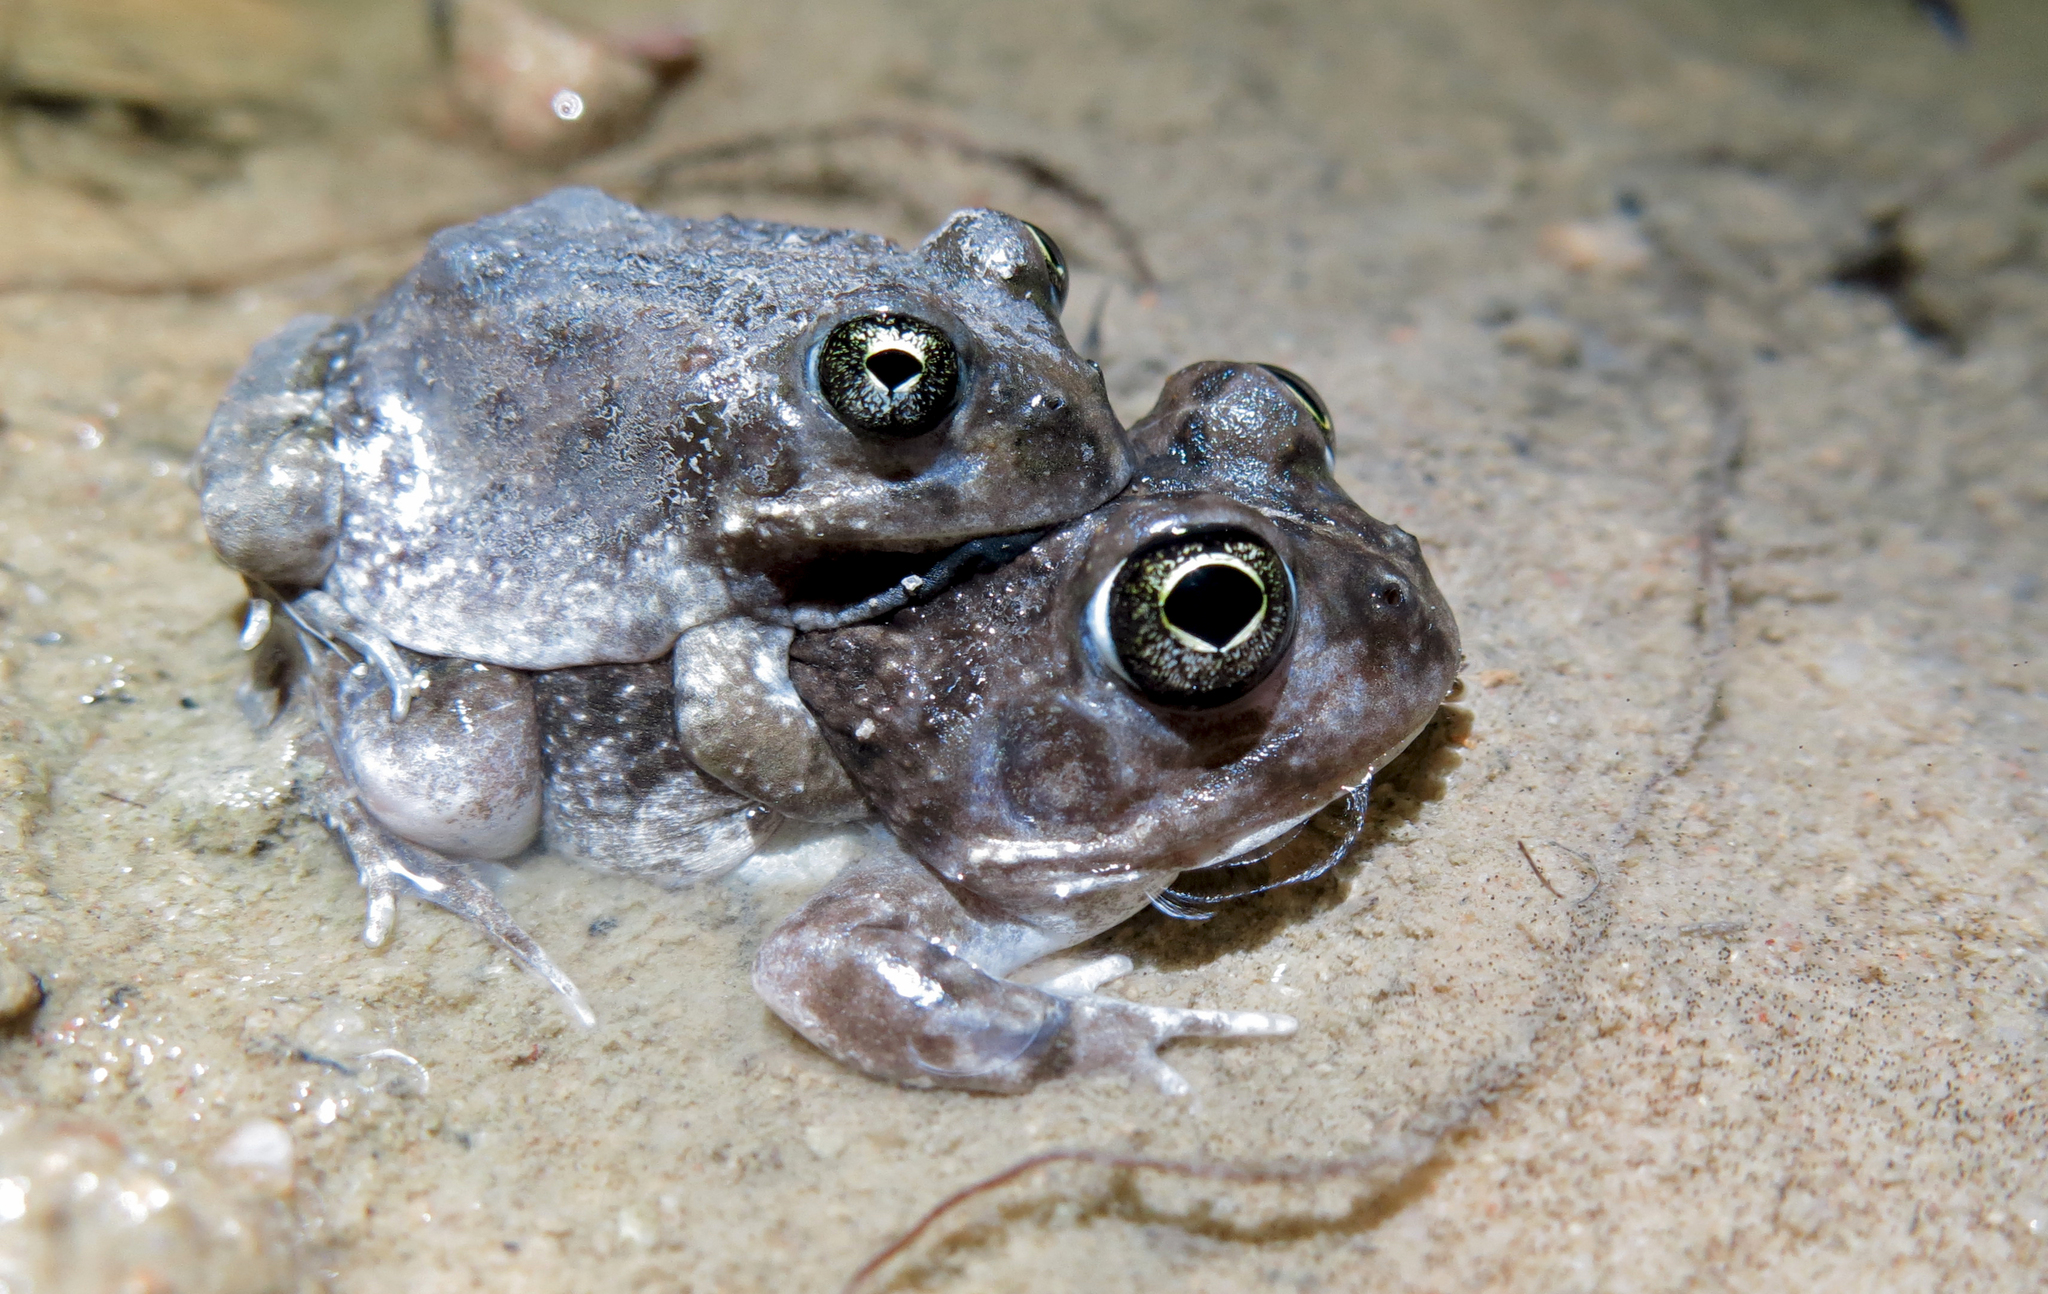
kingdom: Animalia
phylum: Chordata
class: Amphibia
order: Anura
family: Pyxicephalidae
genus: Tomopterna
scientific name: Tomopterna delalandii
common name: Delalande's burrowing bullfrog
